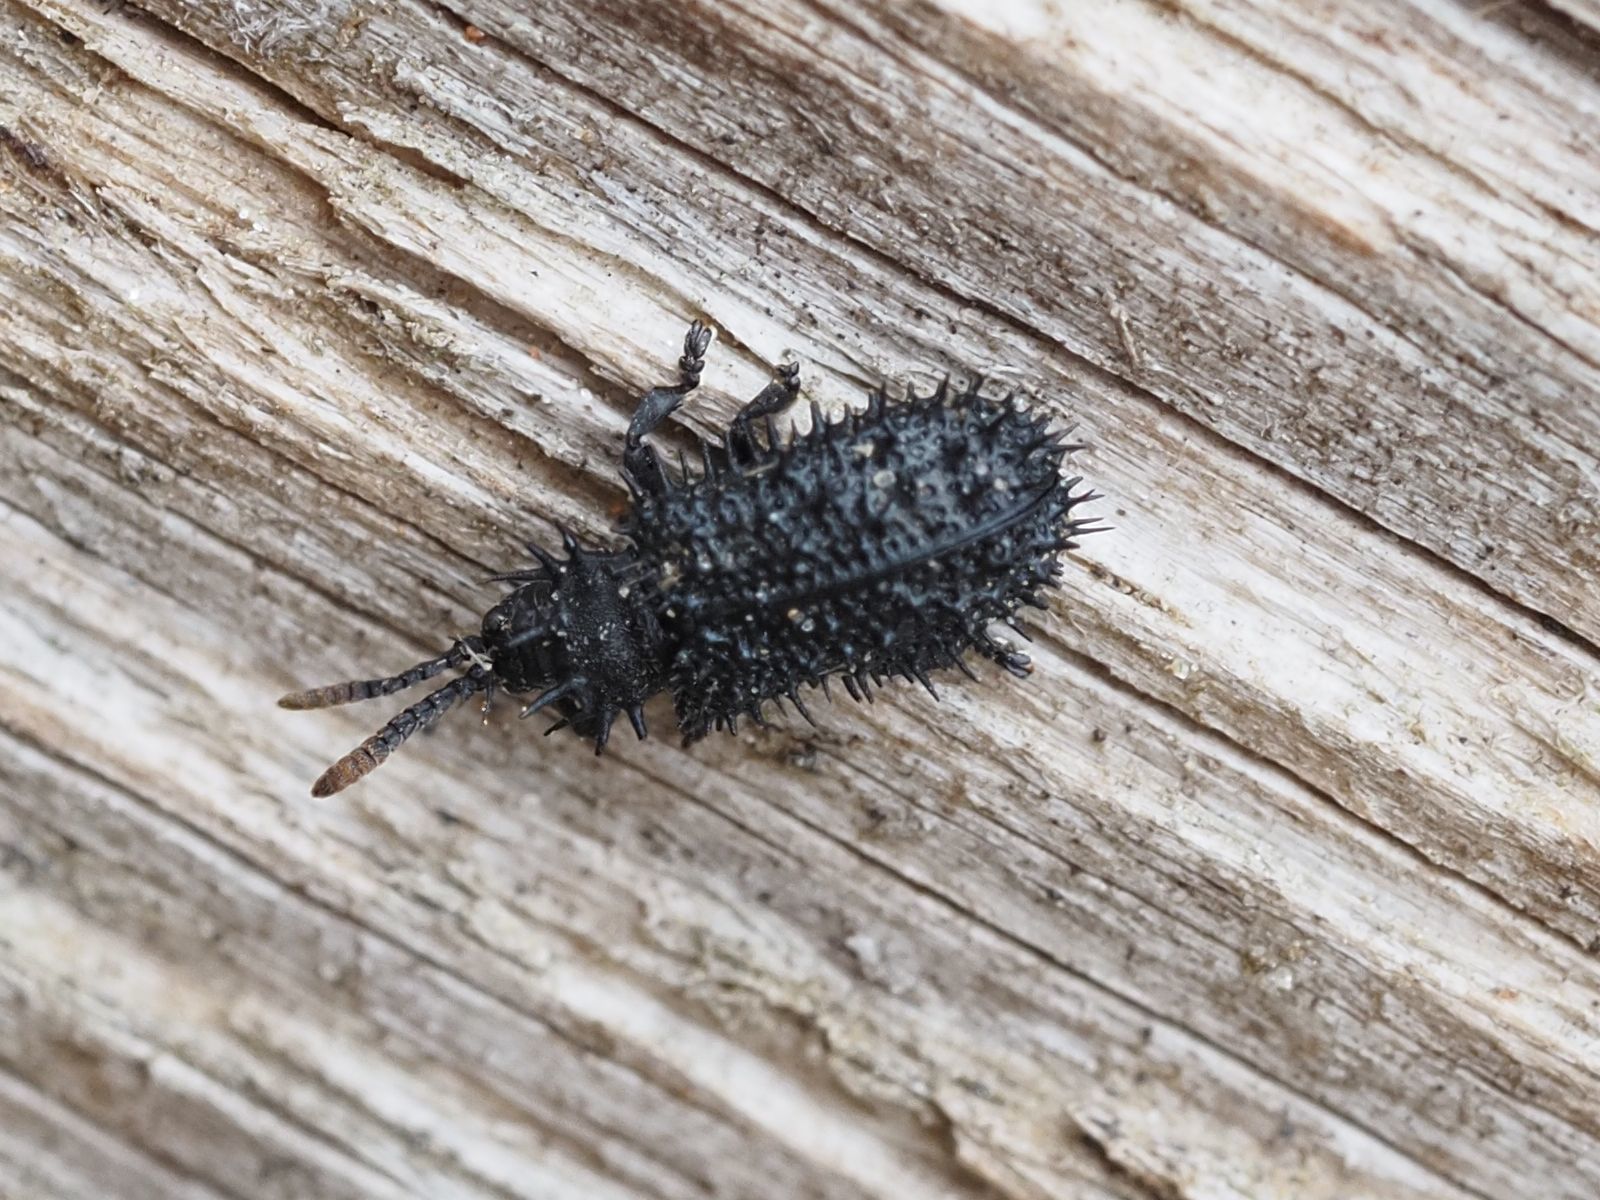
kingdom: Animalia
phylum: Arthropoda
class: Insecta
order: Coleoptera
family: Chrysomelidae
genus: Hispa
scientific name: Hispa atra
